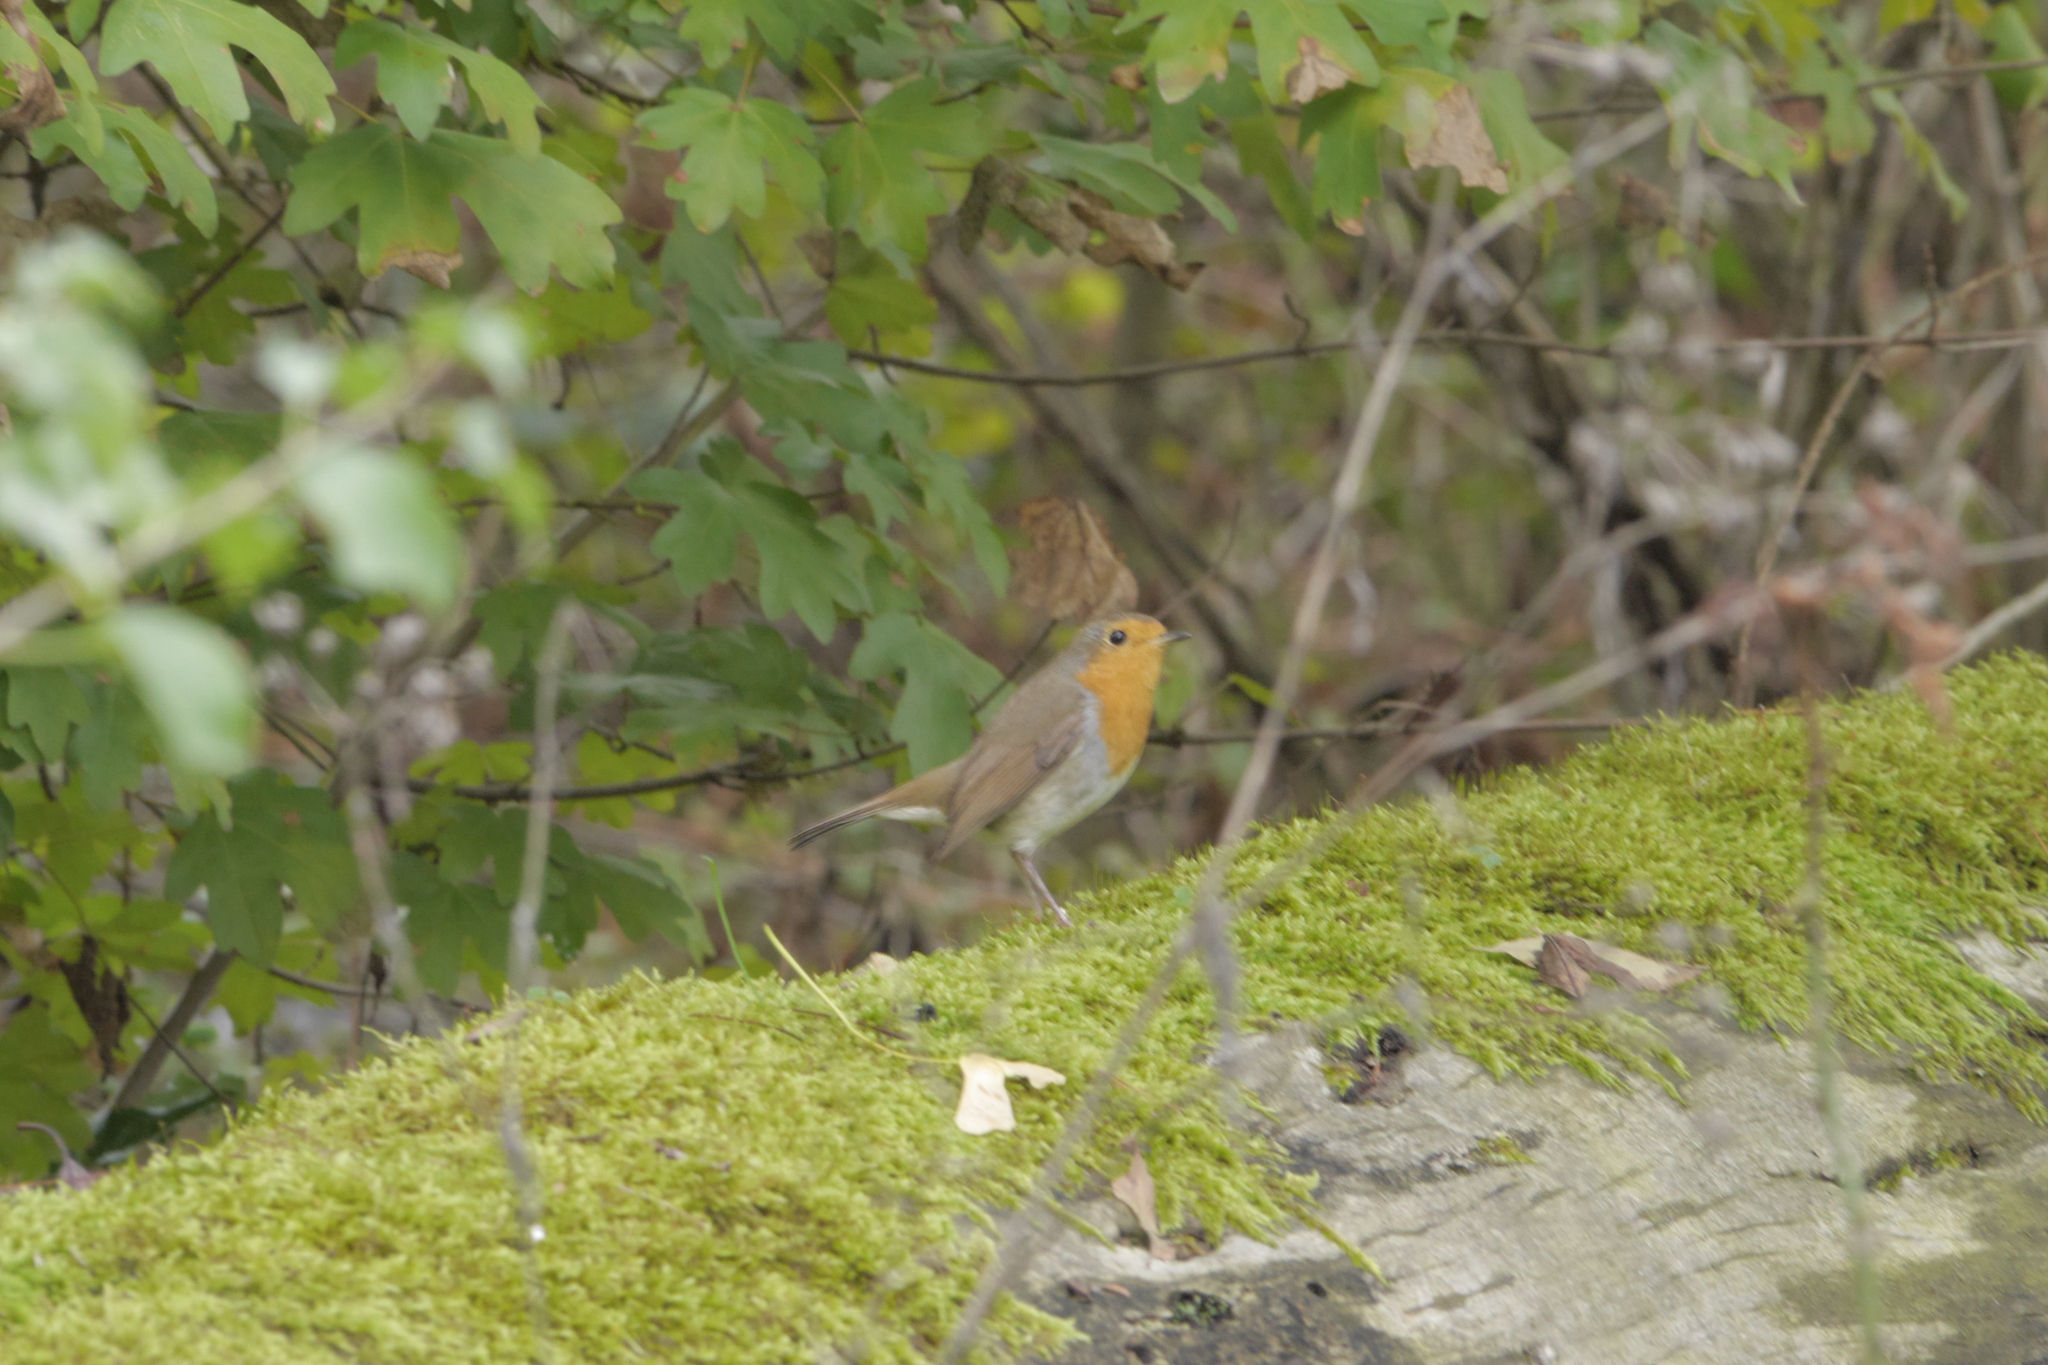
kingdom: Animalia
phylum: Chordata
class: Aves
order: Passeriformes
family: Muscicapidae
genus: Erithacus
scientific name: Erithacus rubecula
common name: European robin
